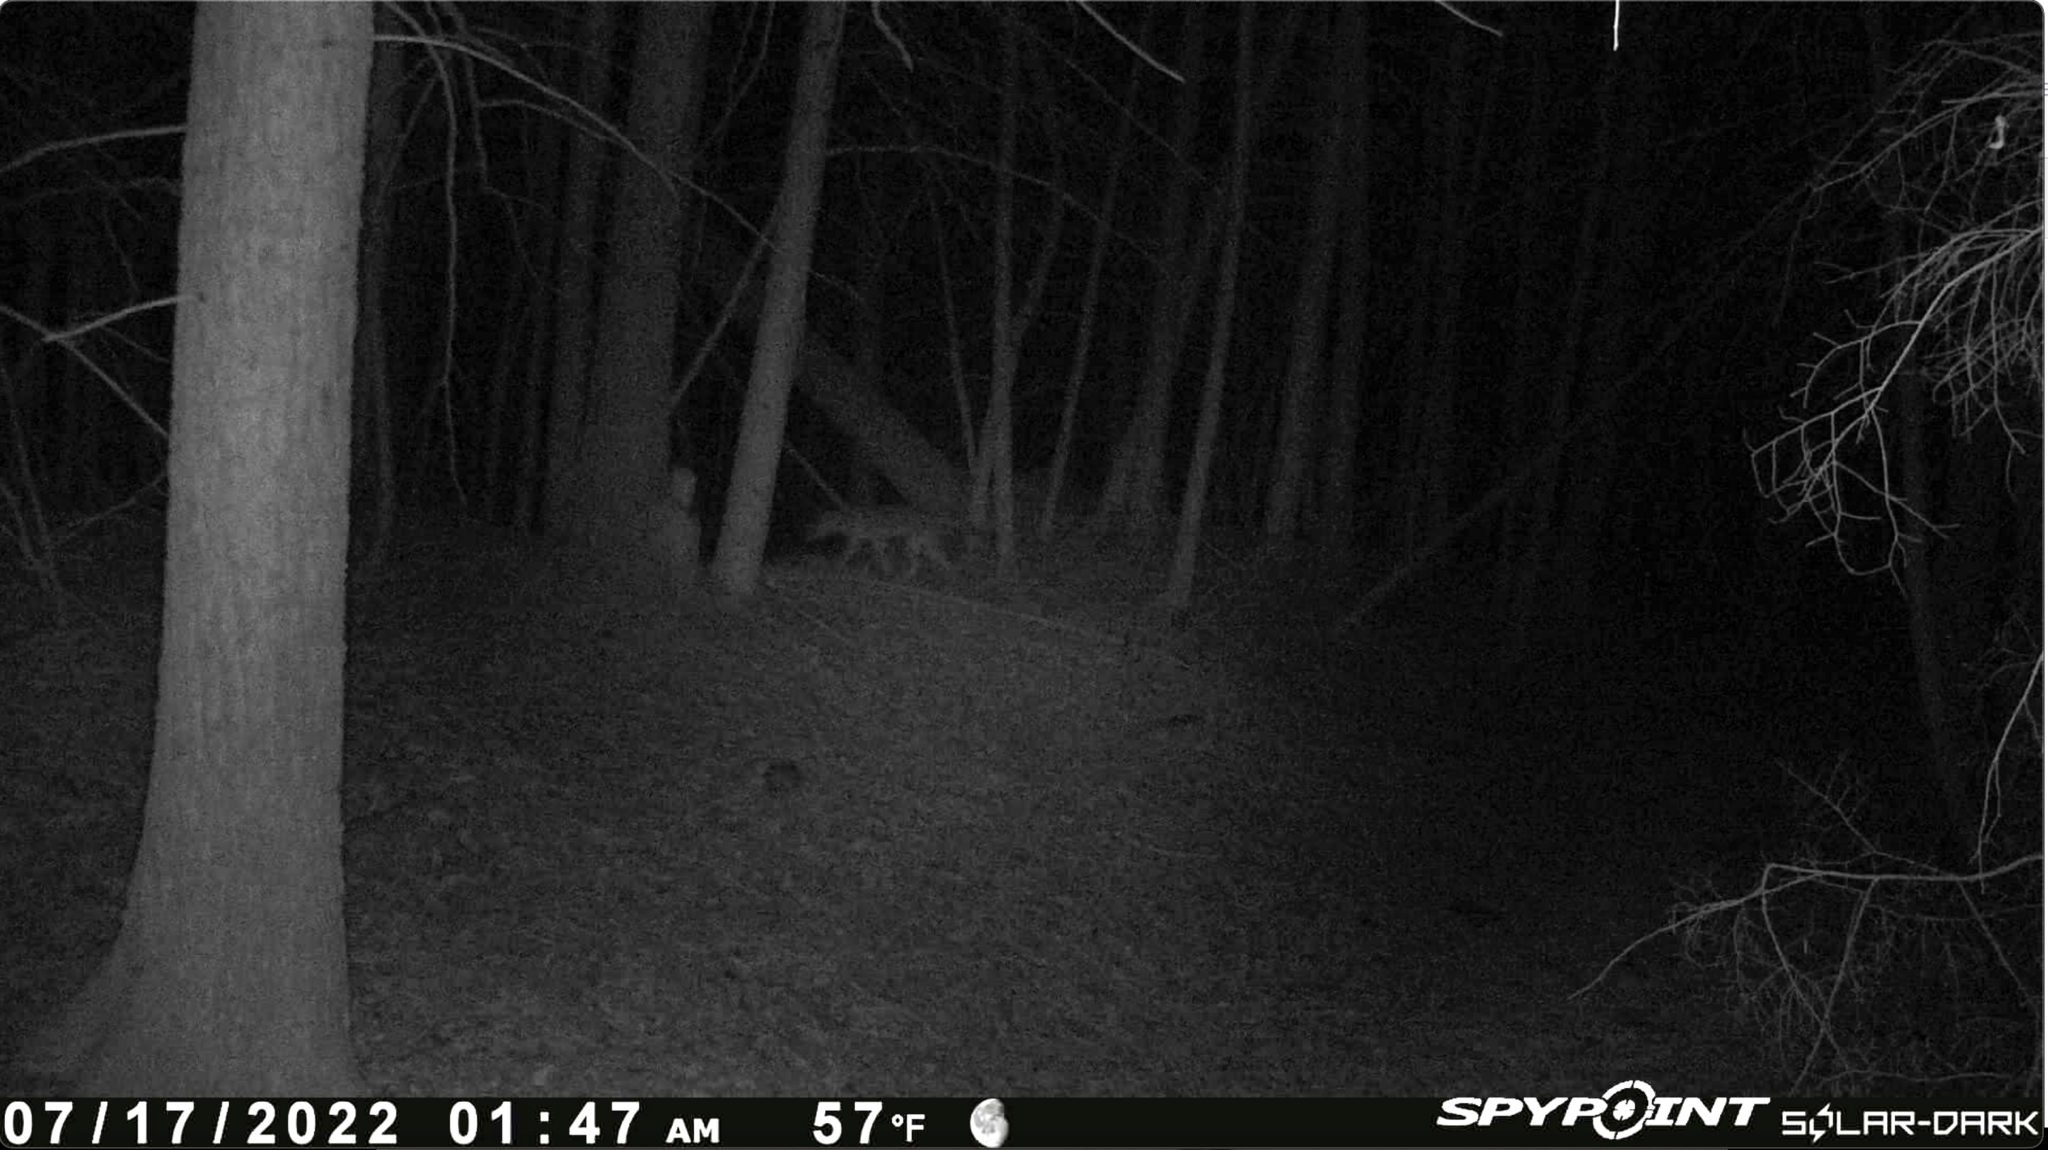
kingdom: Animalia
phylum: Chordata
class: Mammalia
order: Carnivora
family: Canidae
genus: Canis
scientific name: Canis latrans
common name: Coyote
